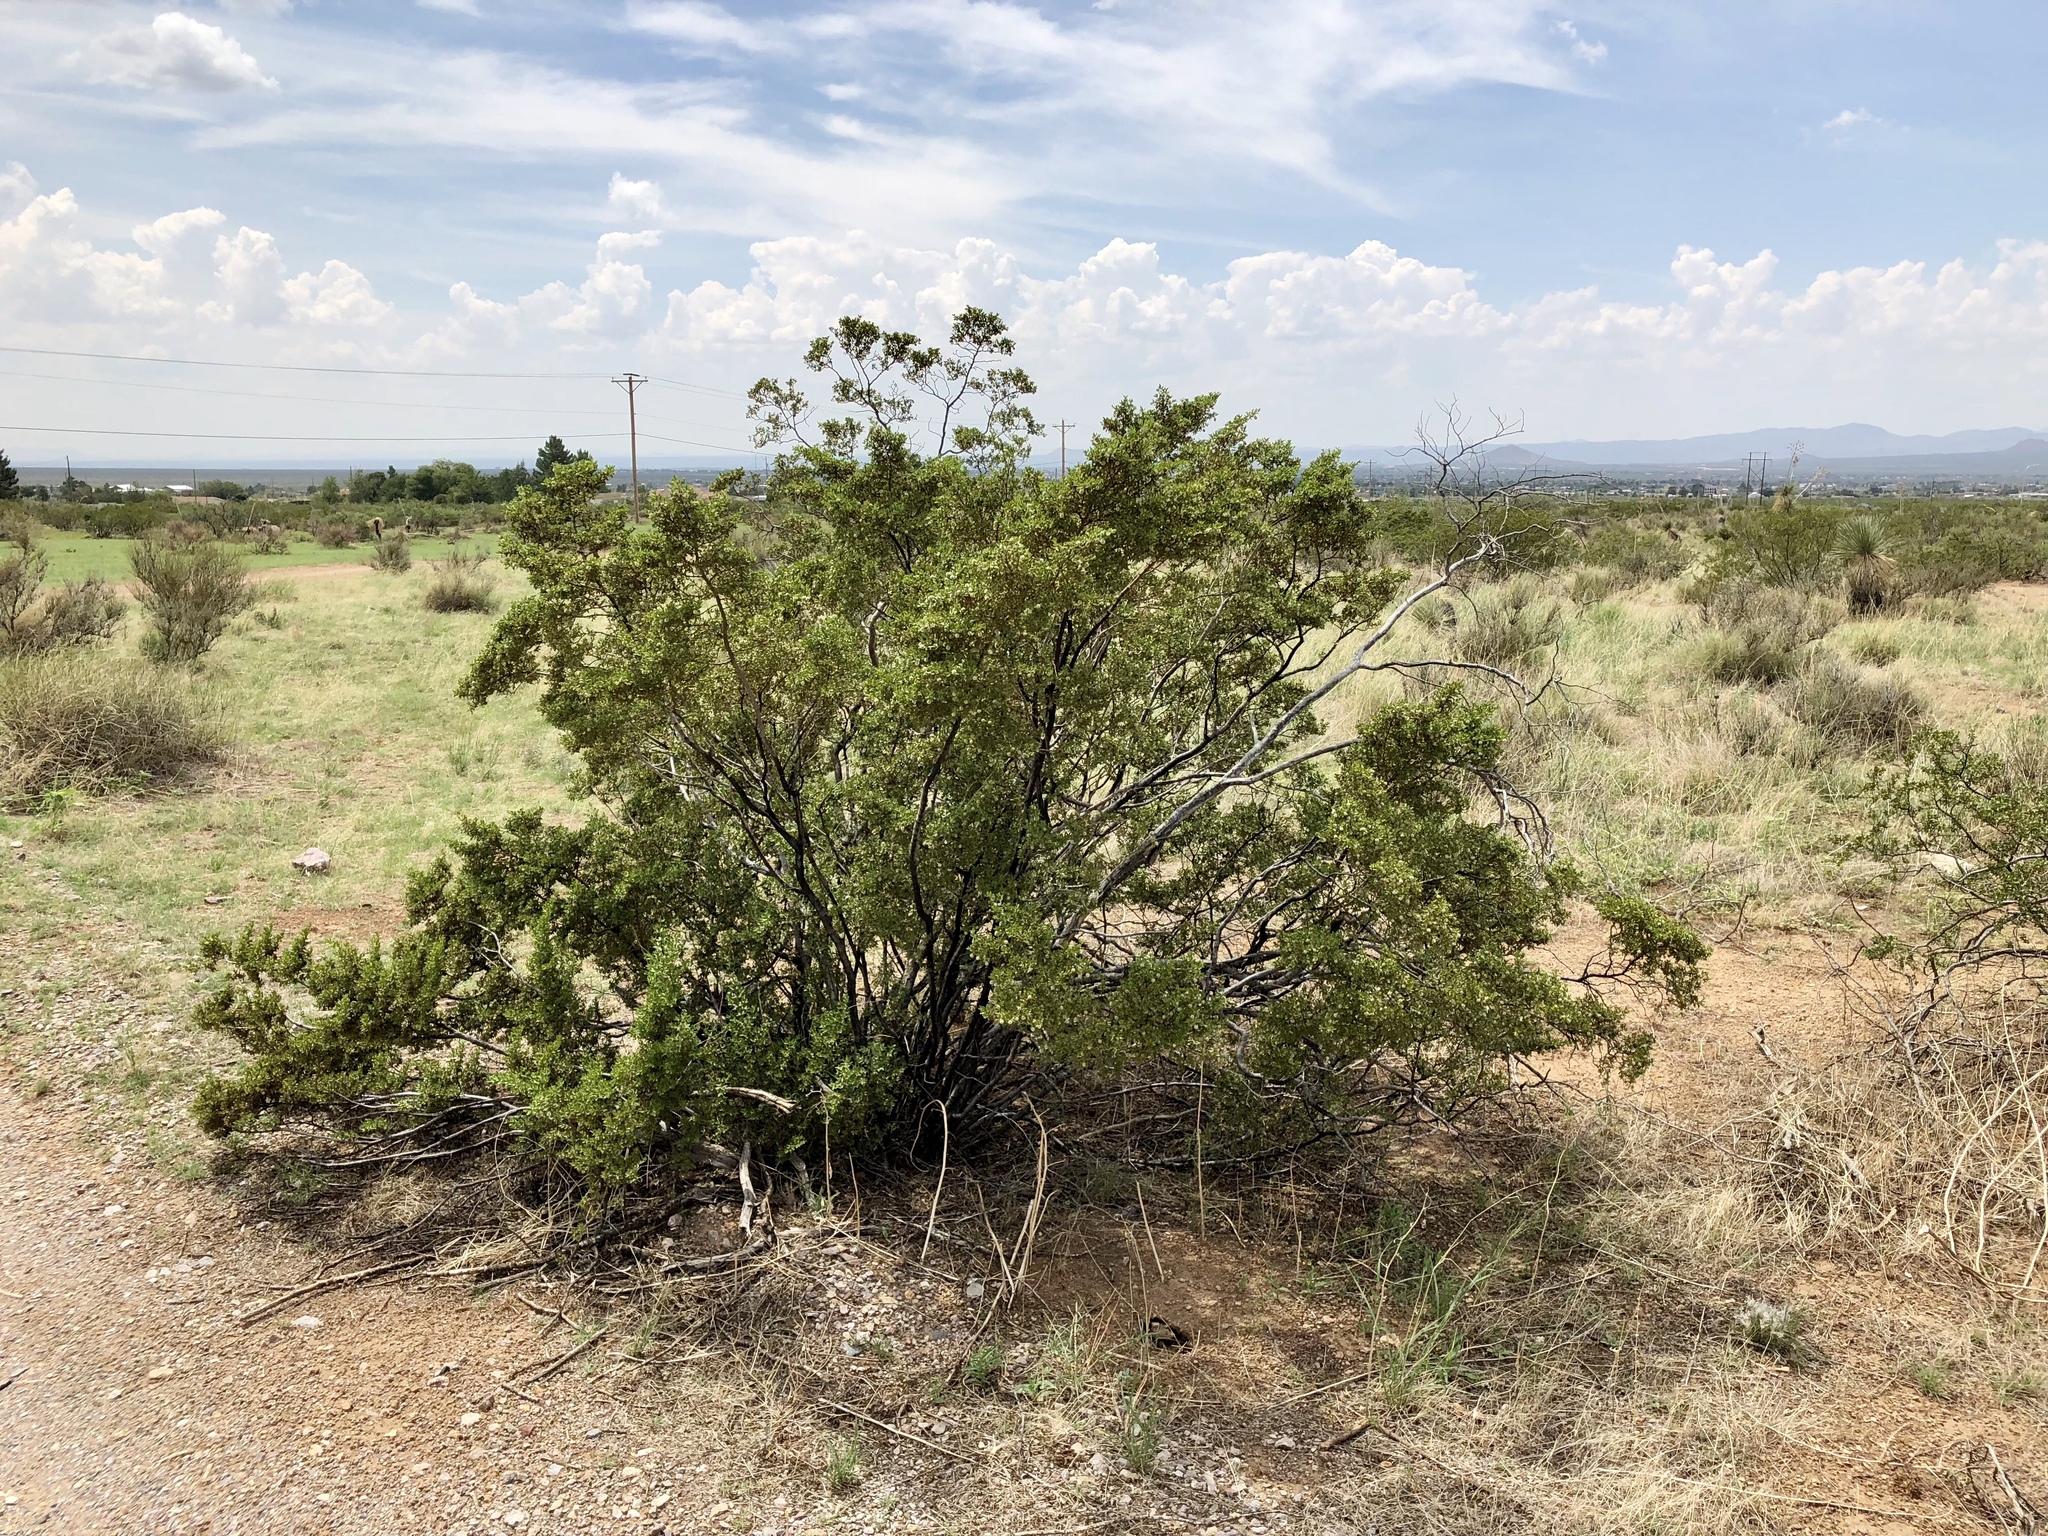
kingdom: Plantae
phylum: Tracheophyta
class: Magnoliopsida
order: Zygophyllales
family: Zygophyllaceae
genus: Larrea
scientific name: Larrea tridentata
